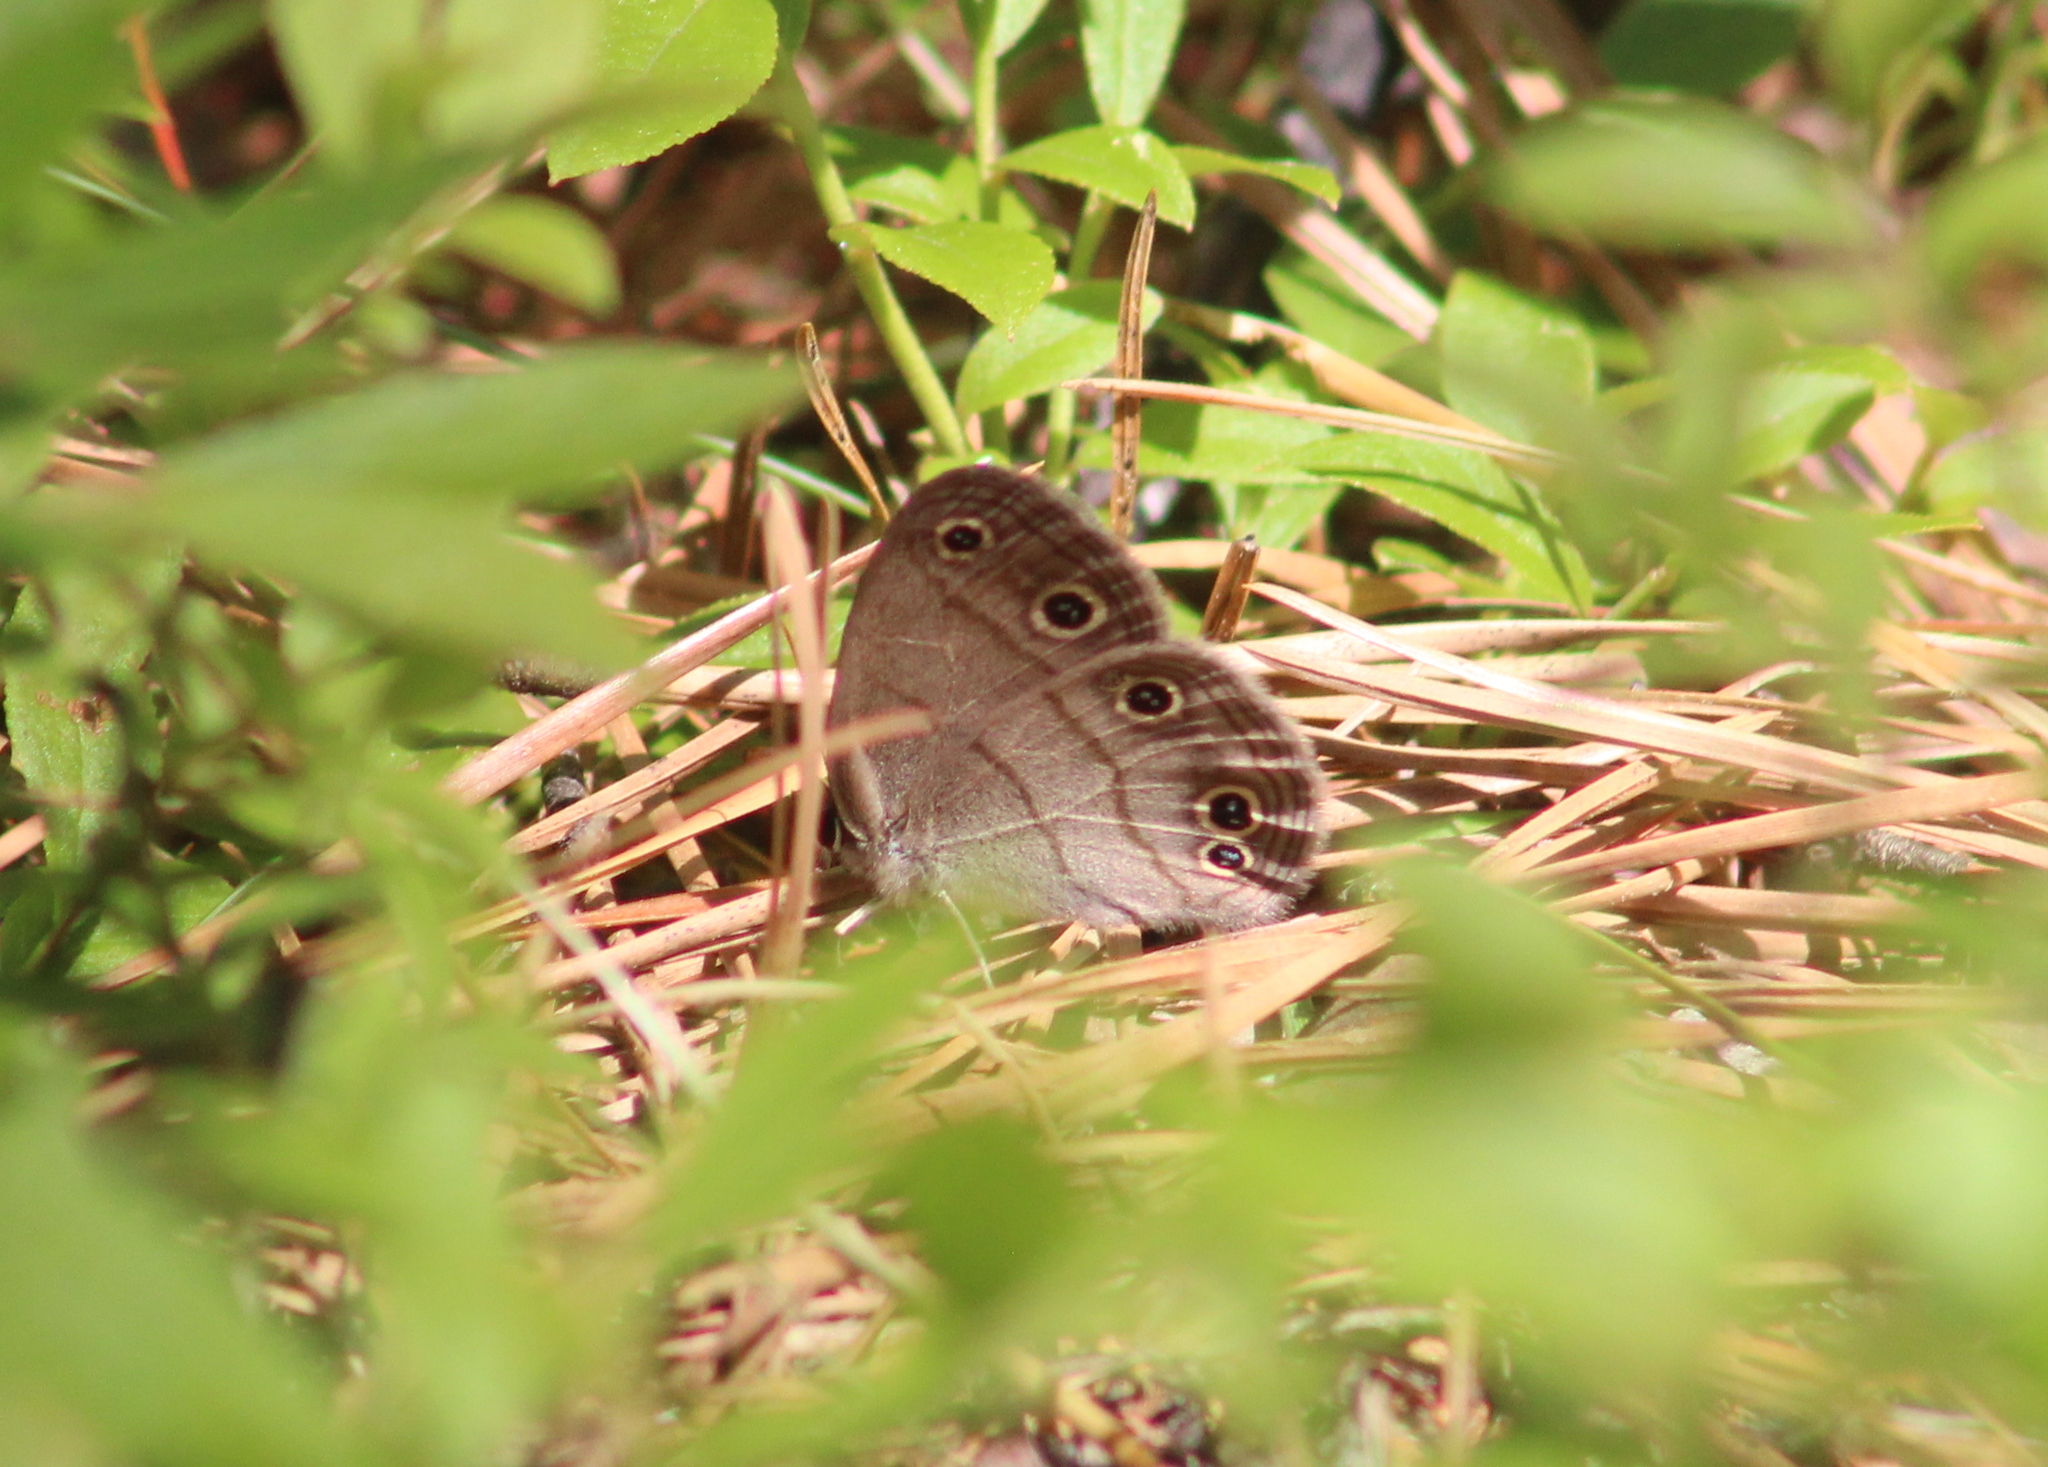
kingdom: Animalia
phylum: Arthropoda
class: Insecta
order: Lepidoptera
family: Nymphalidae
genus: Euptychia
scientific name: Euptychia cymela
